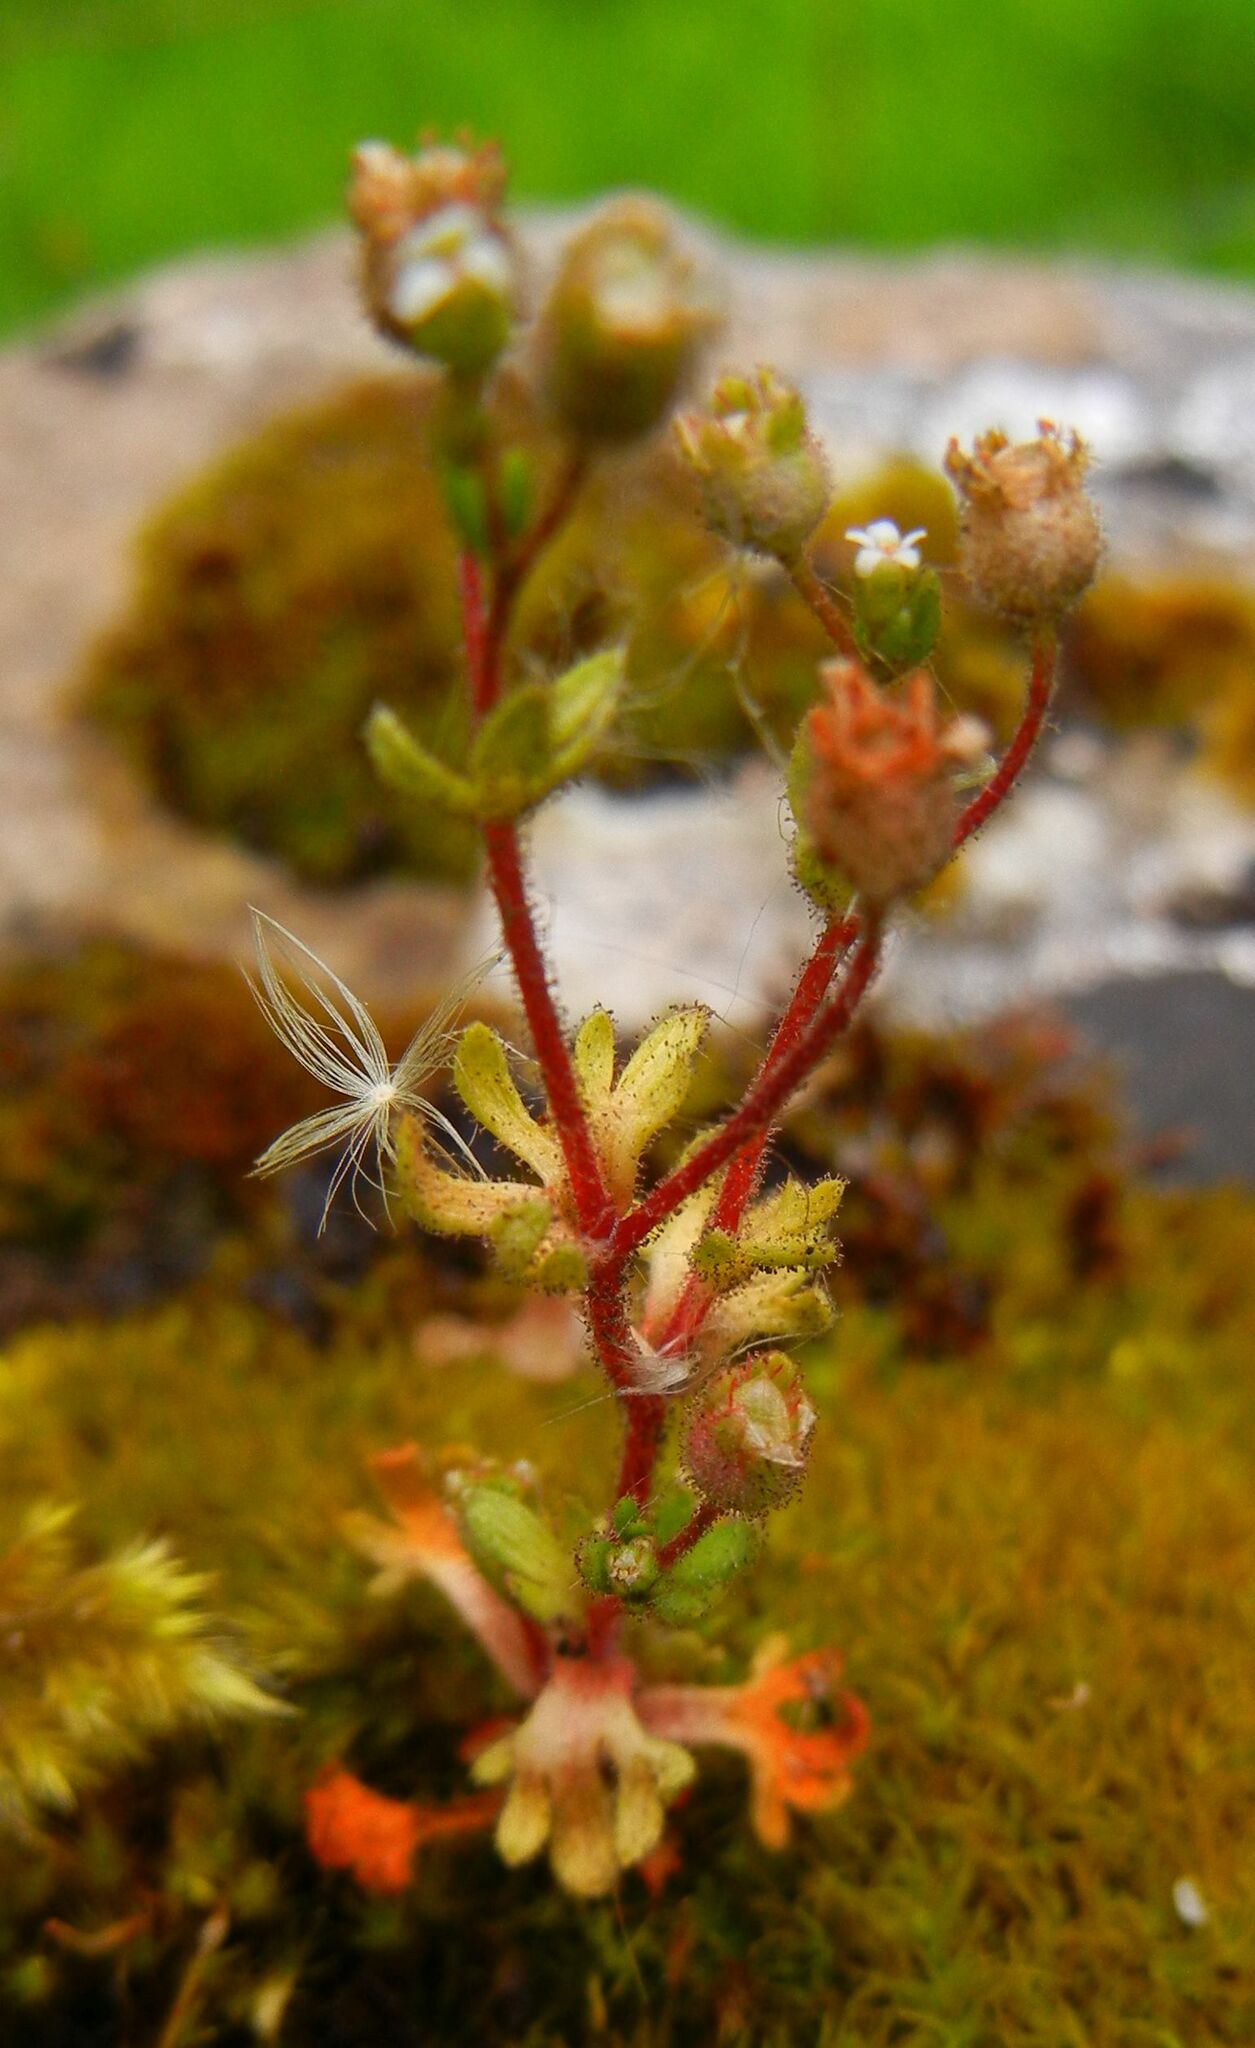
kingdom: Plantae
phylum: Tracheophyta
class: Magnoliopsida
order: Saxifragales
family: Saxifragaceae
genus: Saxifraga
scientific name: Saxifraga tridactylites
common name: Rue-leaved saxifrage
